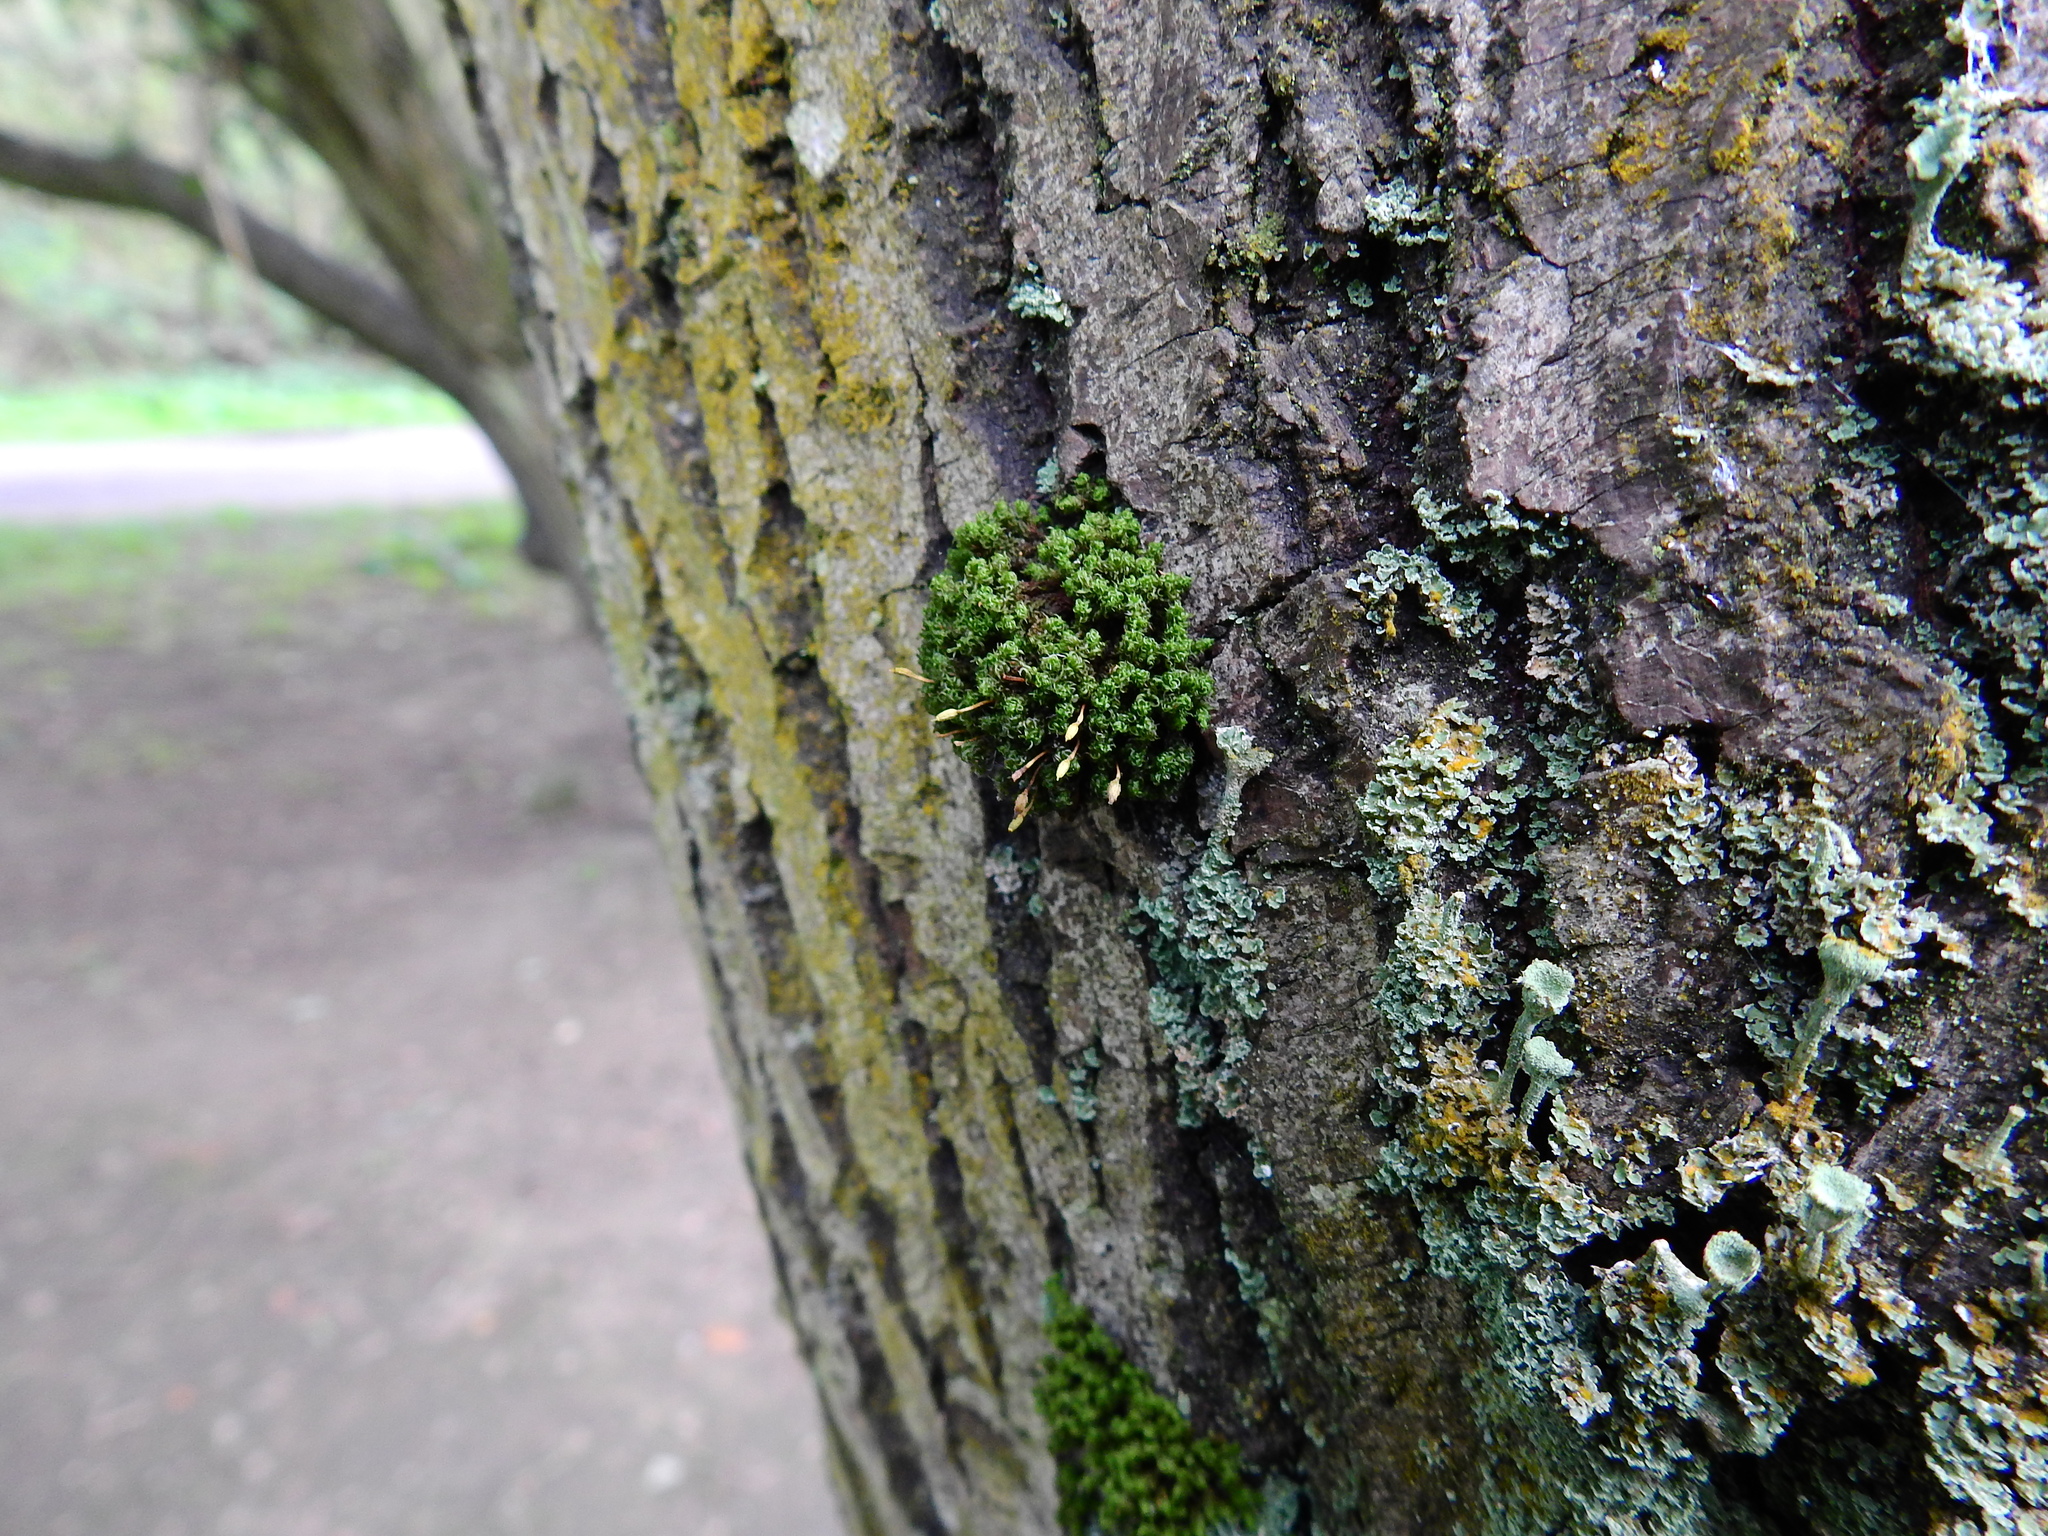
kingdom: Plantae
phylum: Bryophyta
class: Bryopsida
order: Orthotrichales
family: Orthotrichaceae
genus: Ulota
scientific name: Ulota crispa
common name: Crisped pincushion moss
